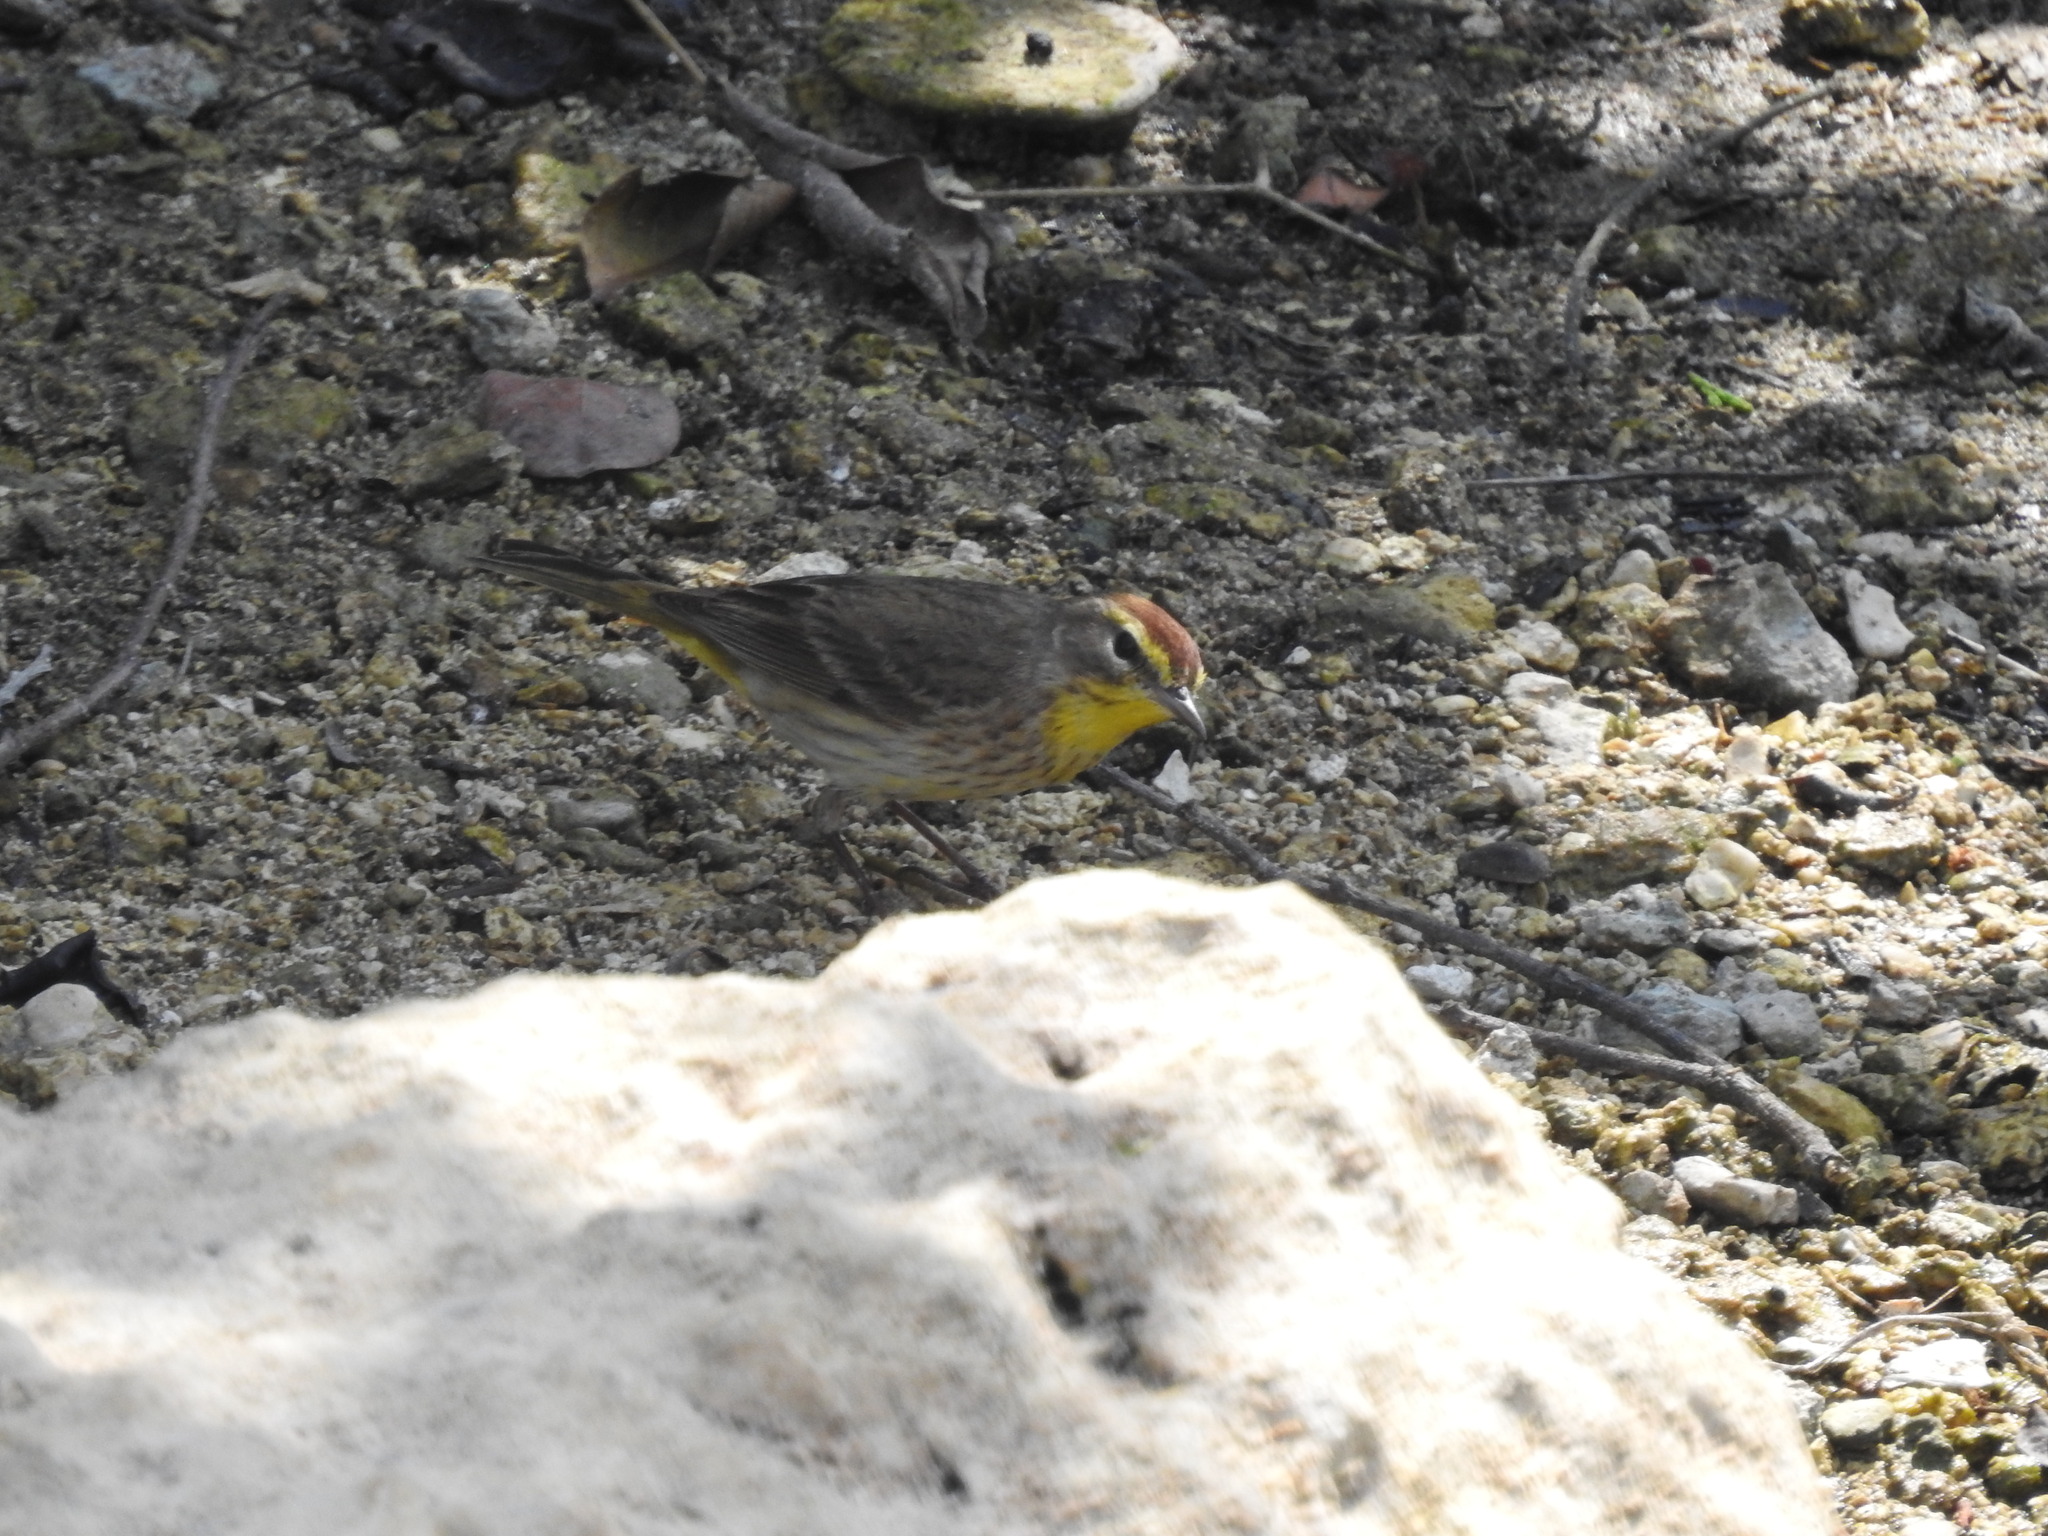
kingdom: Animalia
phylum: Chordata
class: Aves
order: Passeriformes
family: Parulidae
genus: Setophaga
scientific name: Setophaga palmarum
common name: Palm warbler
